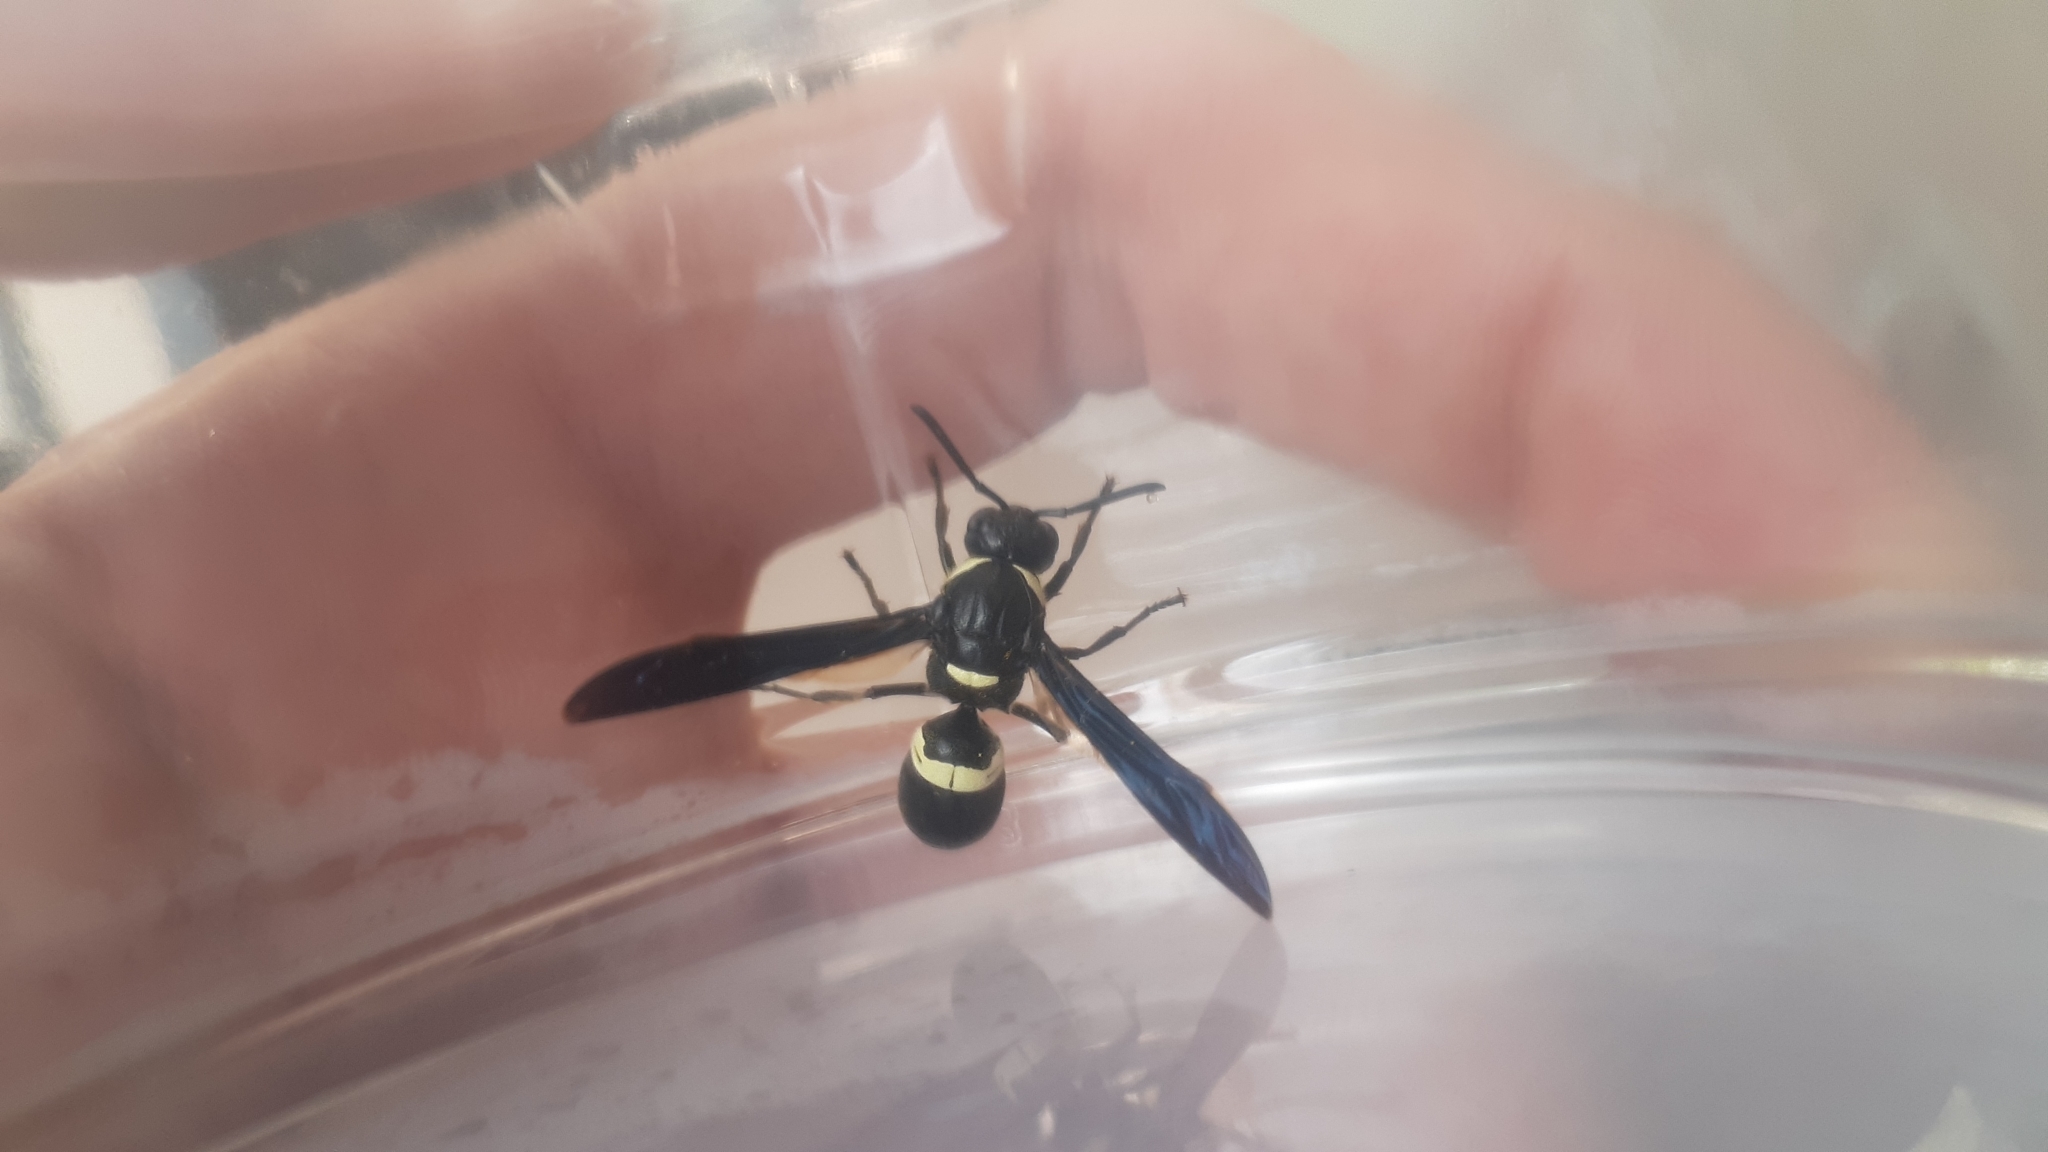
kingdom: Animalia
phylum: Arthropoda
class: Insecta
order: Hymenoptera
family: Eumenidae
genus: Monobia
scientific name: Monobia quadridens
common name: Four-toothed mason wasp
